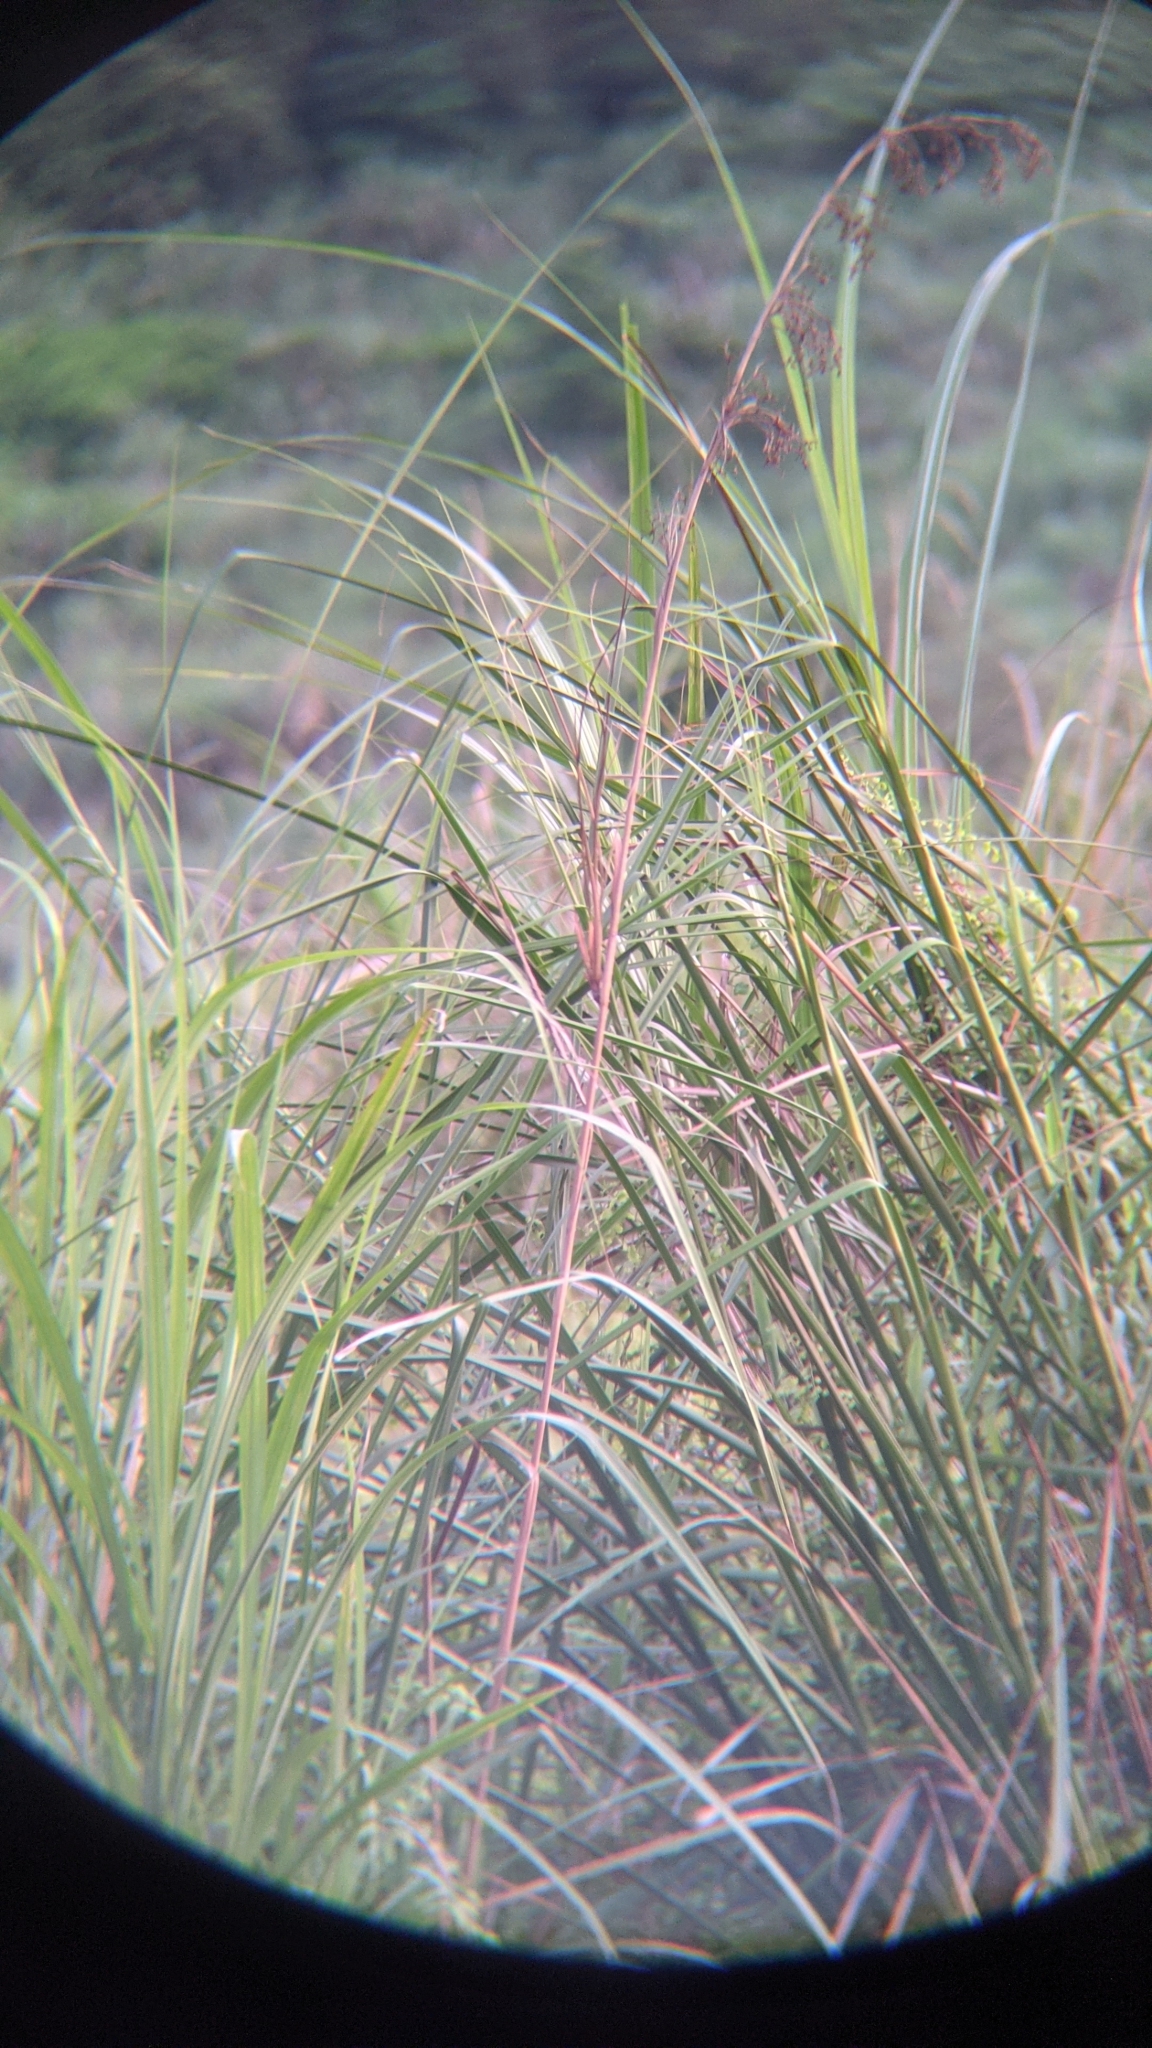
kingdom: Plantae
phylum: Tracheophyta
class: Liliopsida
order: Poales
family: Cyperaceae
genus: Cladium
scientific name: Cladium mariscus
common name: Great fen-sedge
